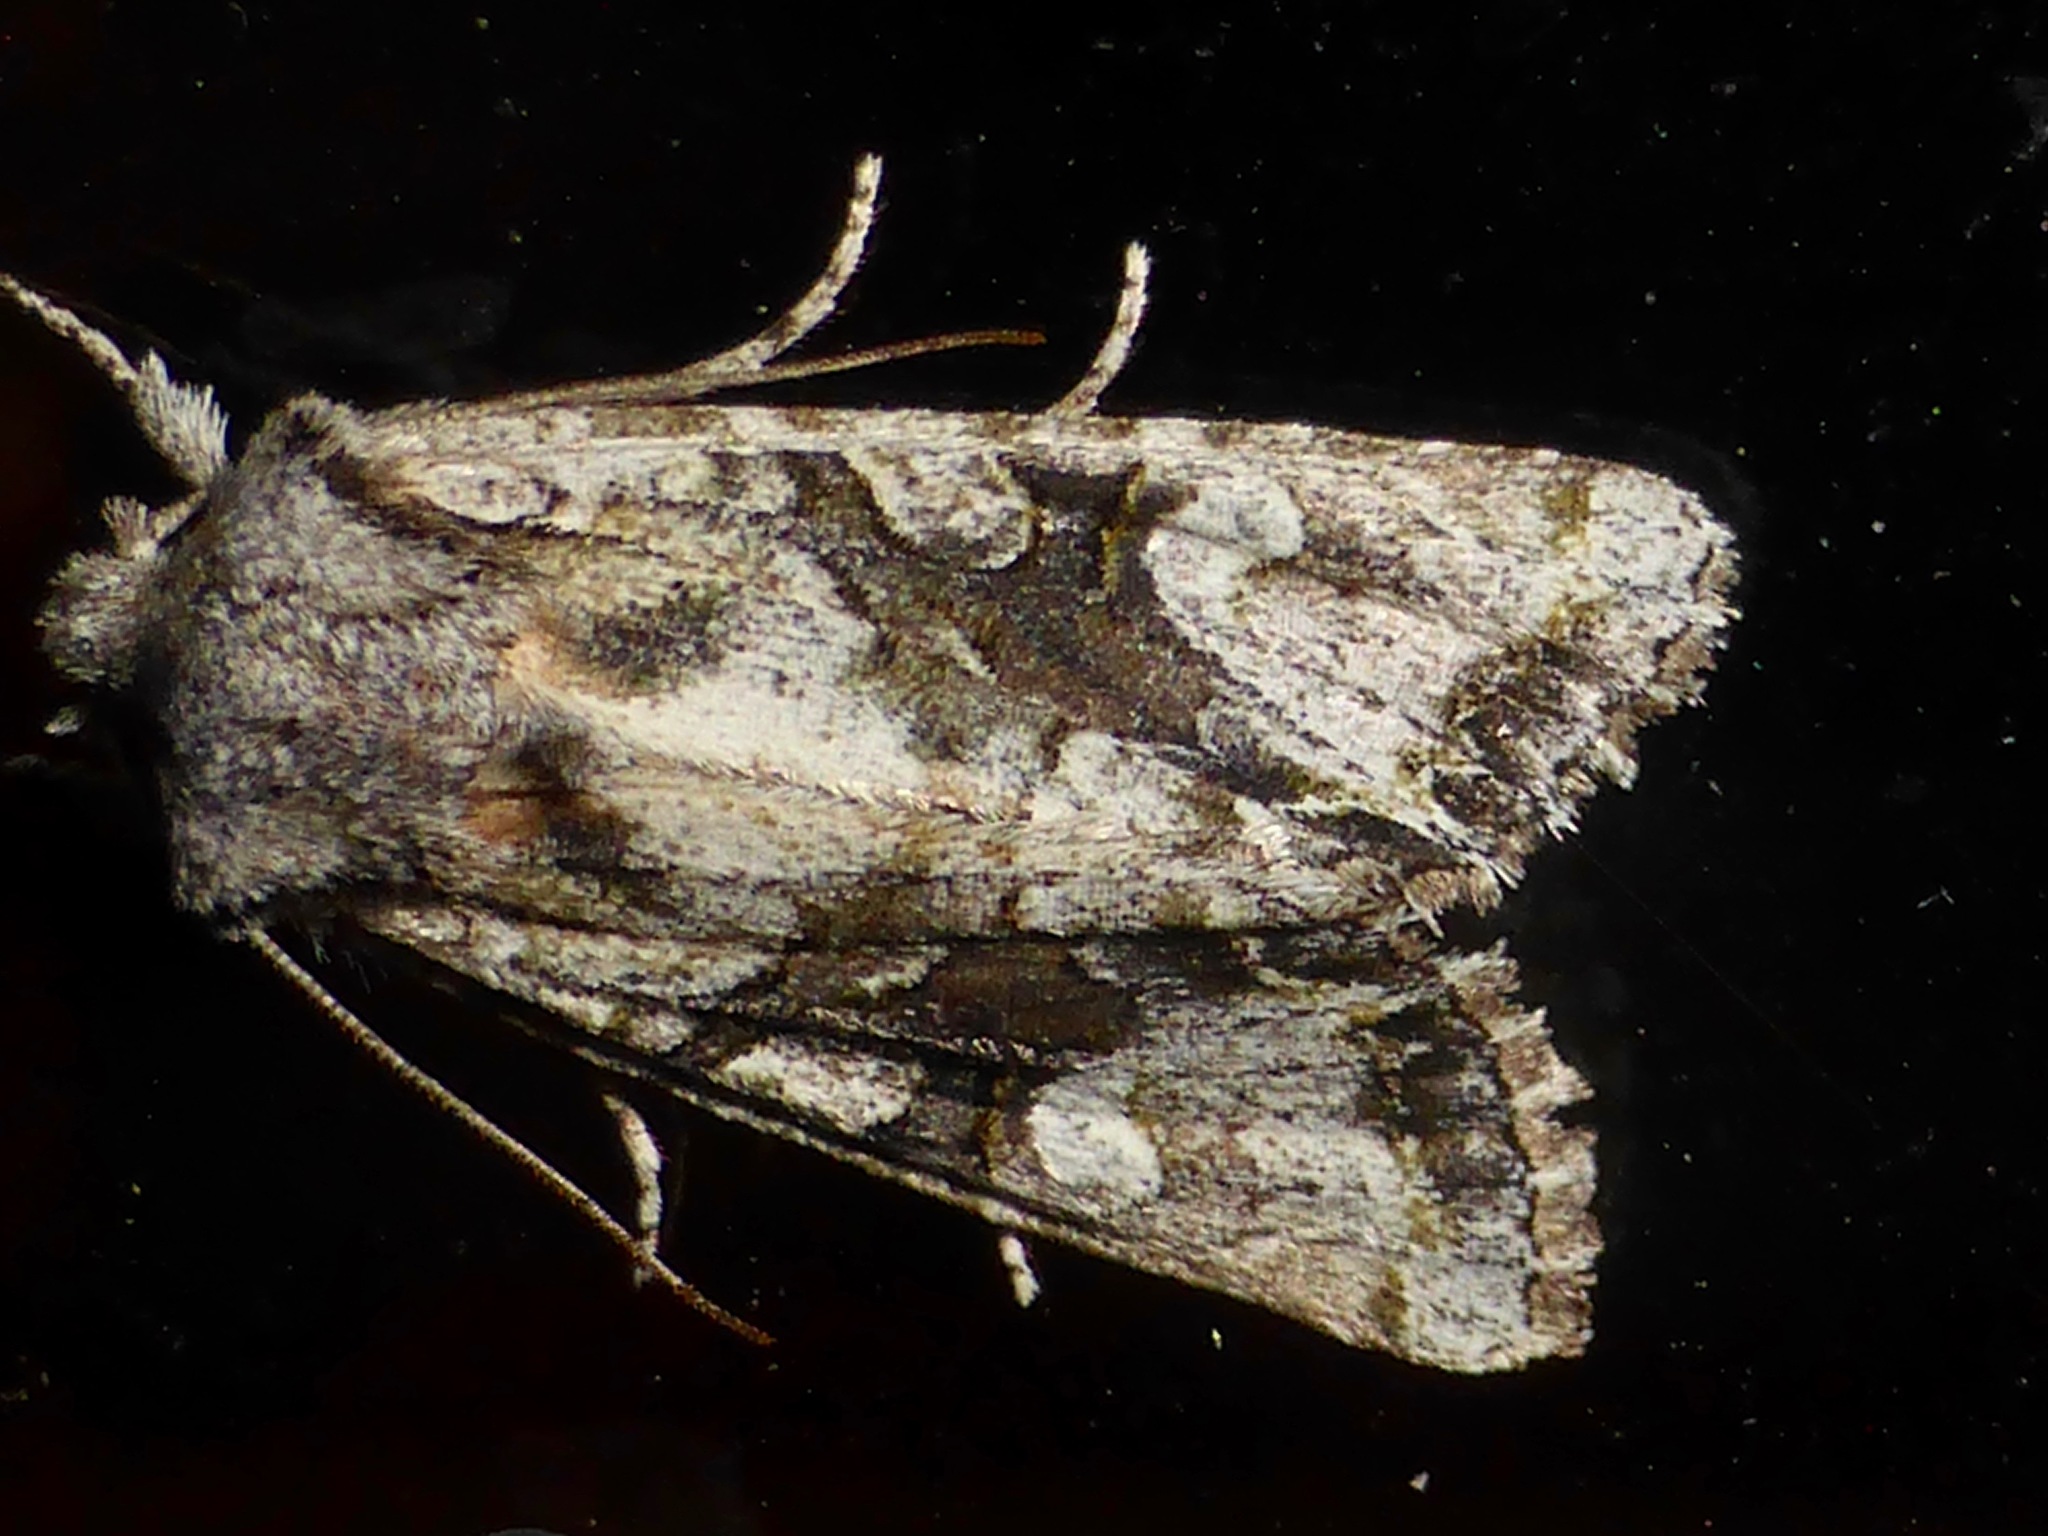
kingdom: Animalia
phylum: Arthropoda
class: Insecta
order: Lepidoptera
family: Noctuidae
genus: Ichneutica
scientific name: Ichneutica mutans
